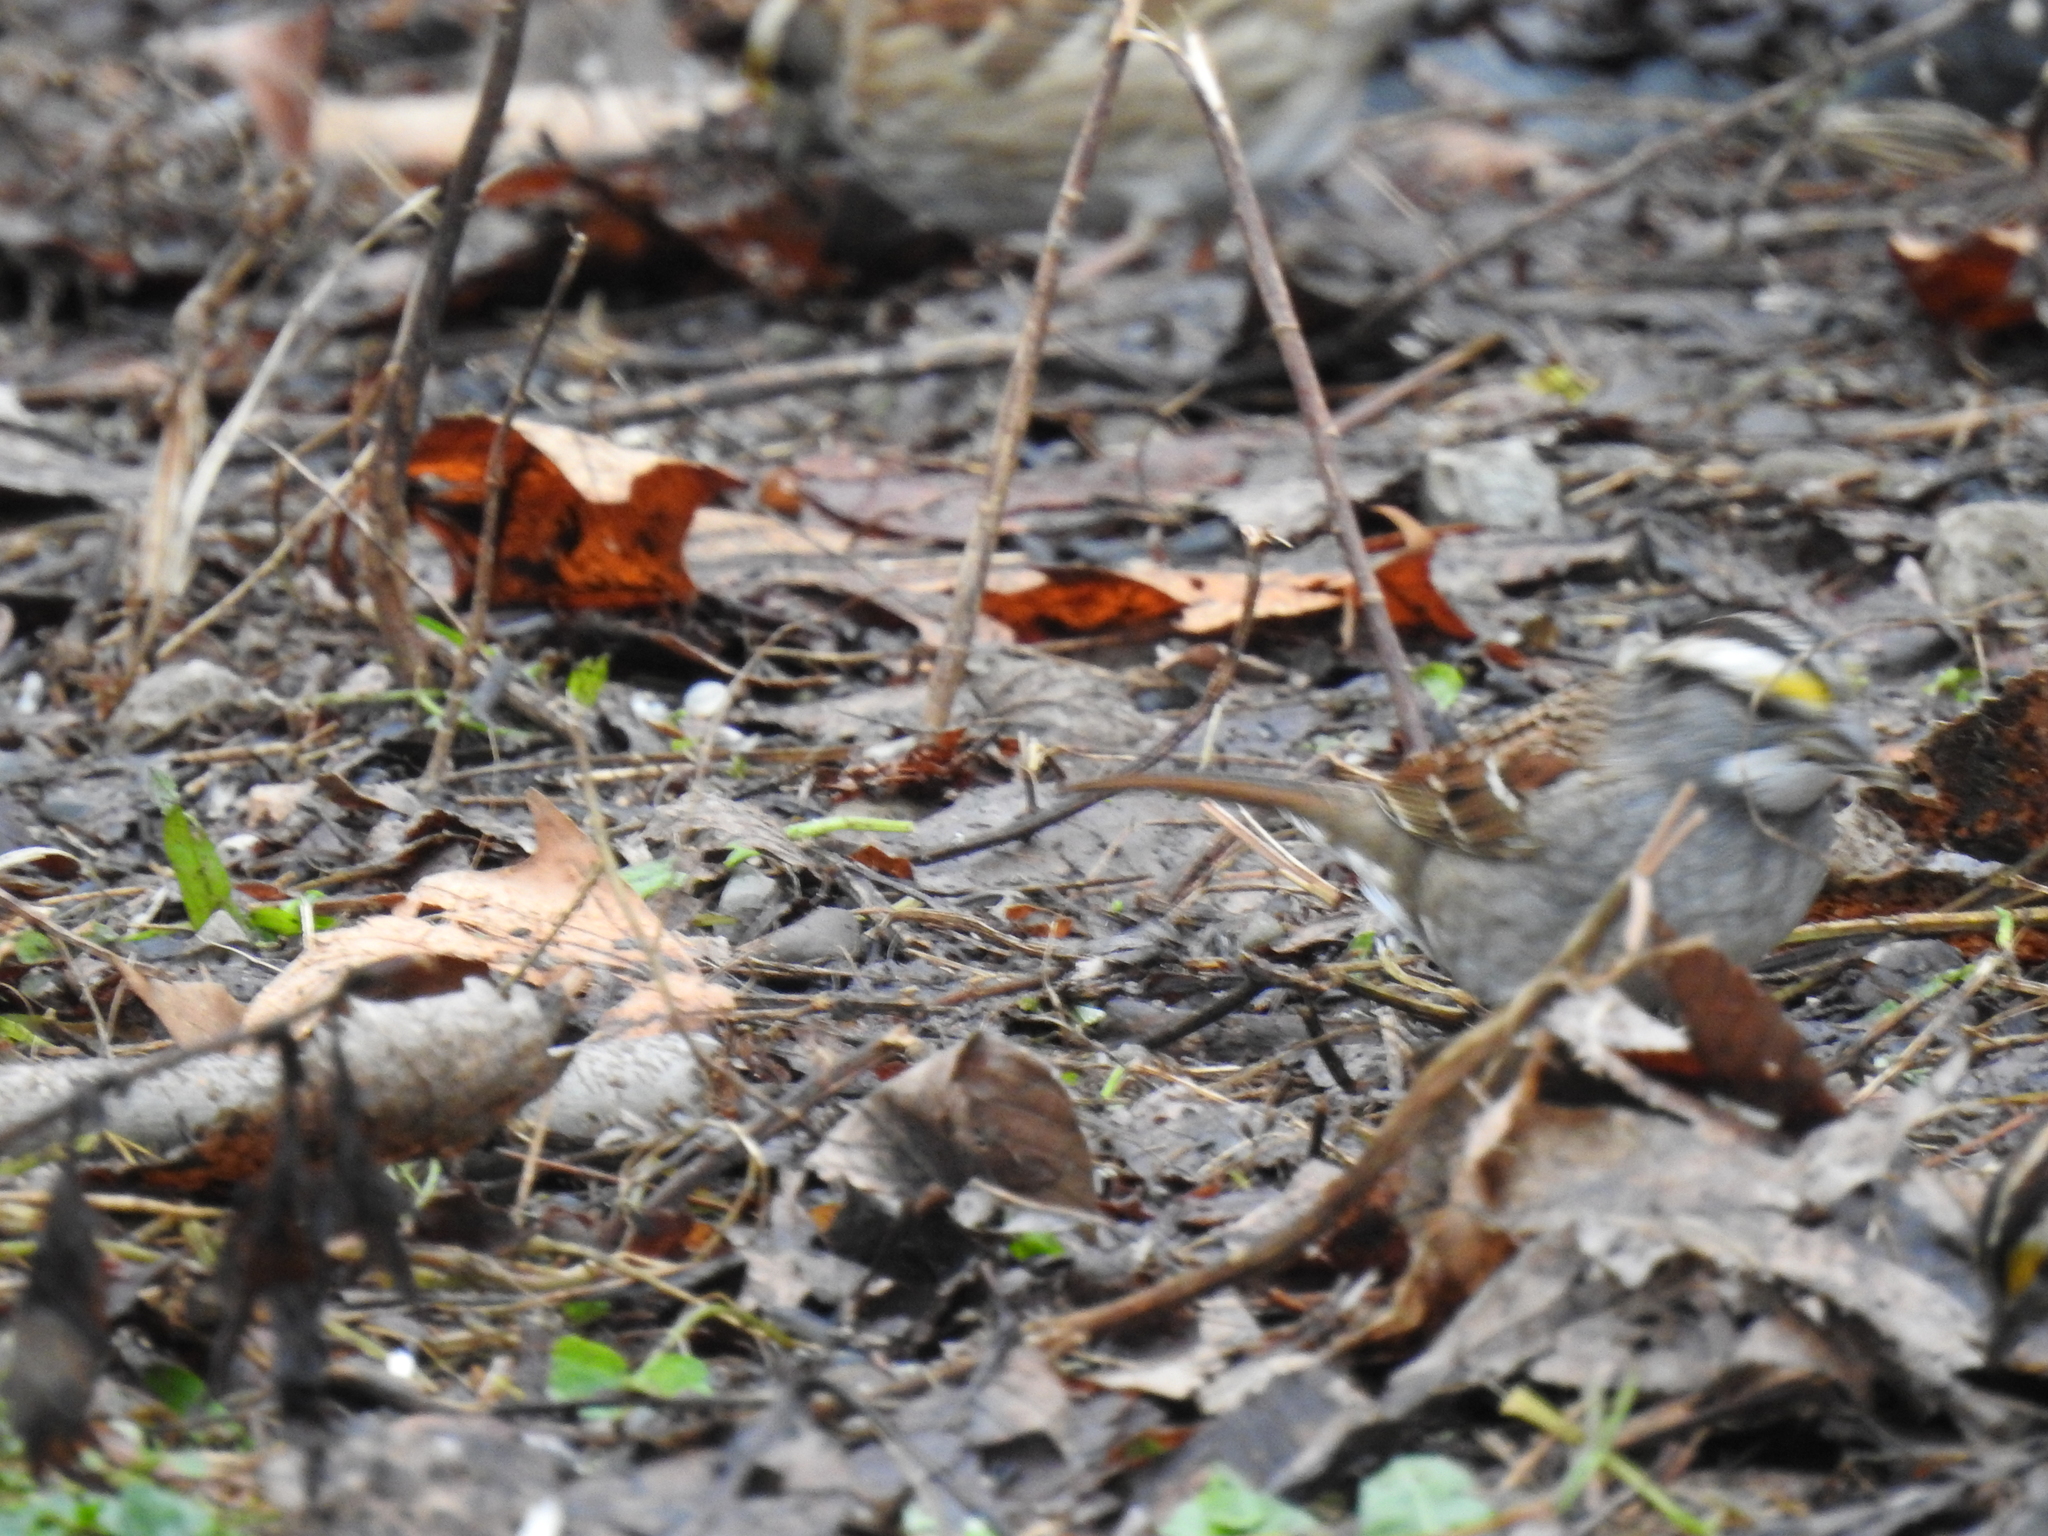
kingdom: Animalia
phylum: Chordata
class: Aves
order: Passeriformes
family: Passerellidae
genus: Zonotrichia
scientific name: Zonotrichia albicollis
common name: White-throated sparrow
